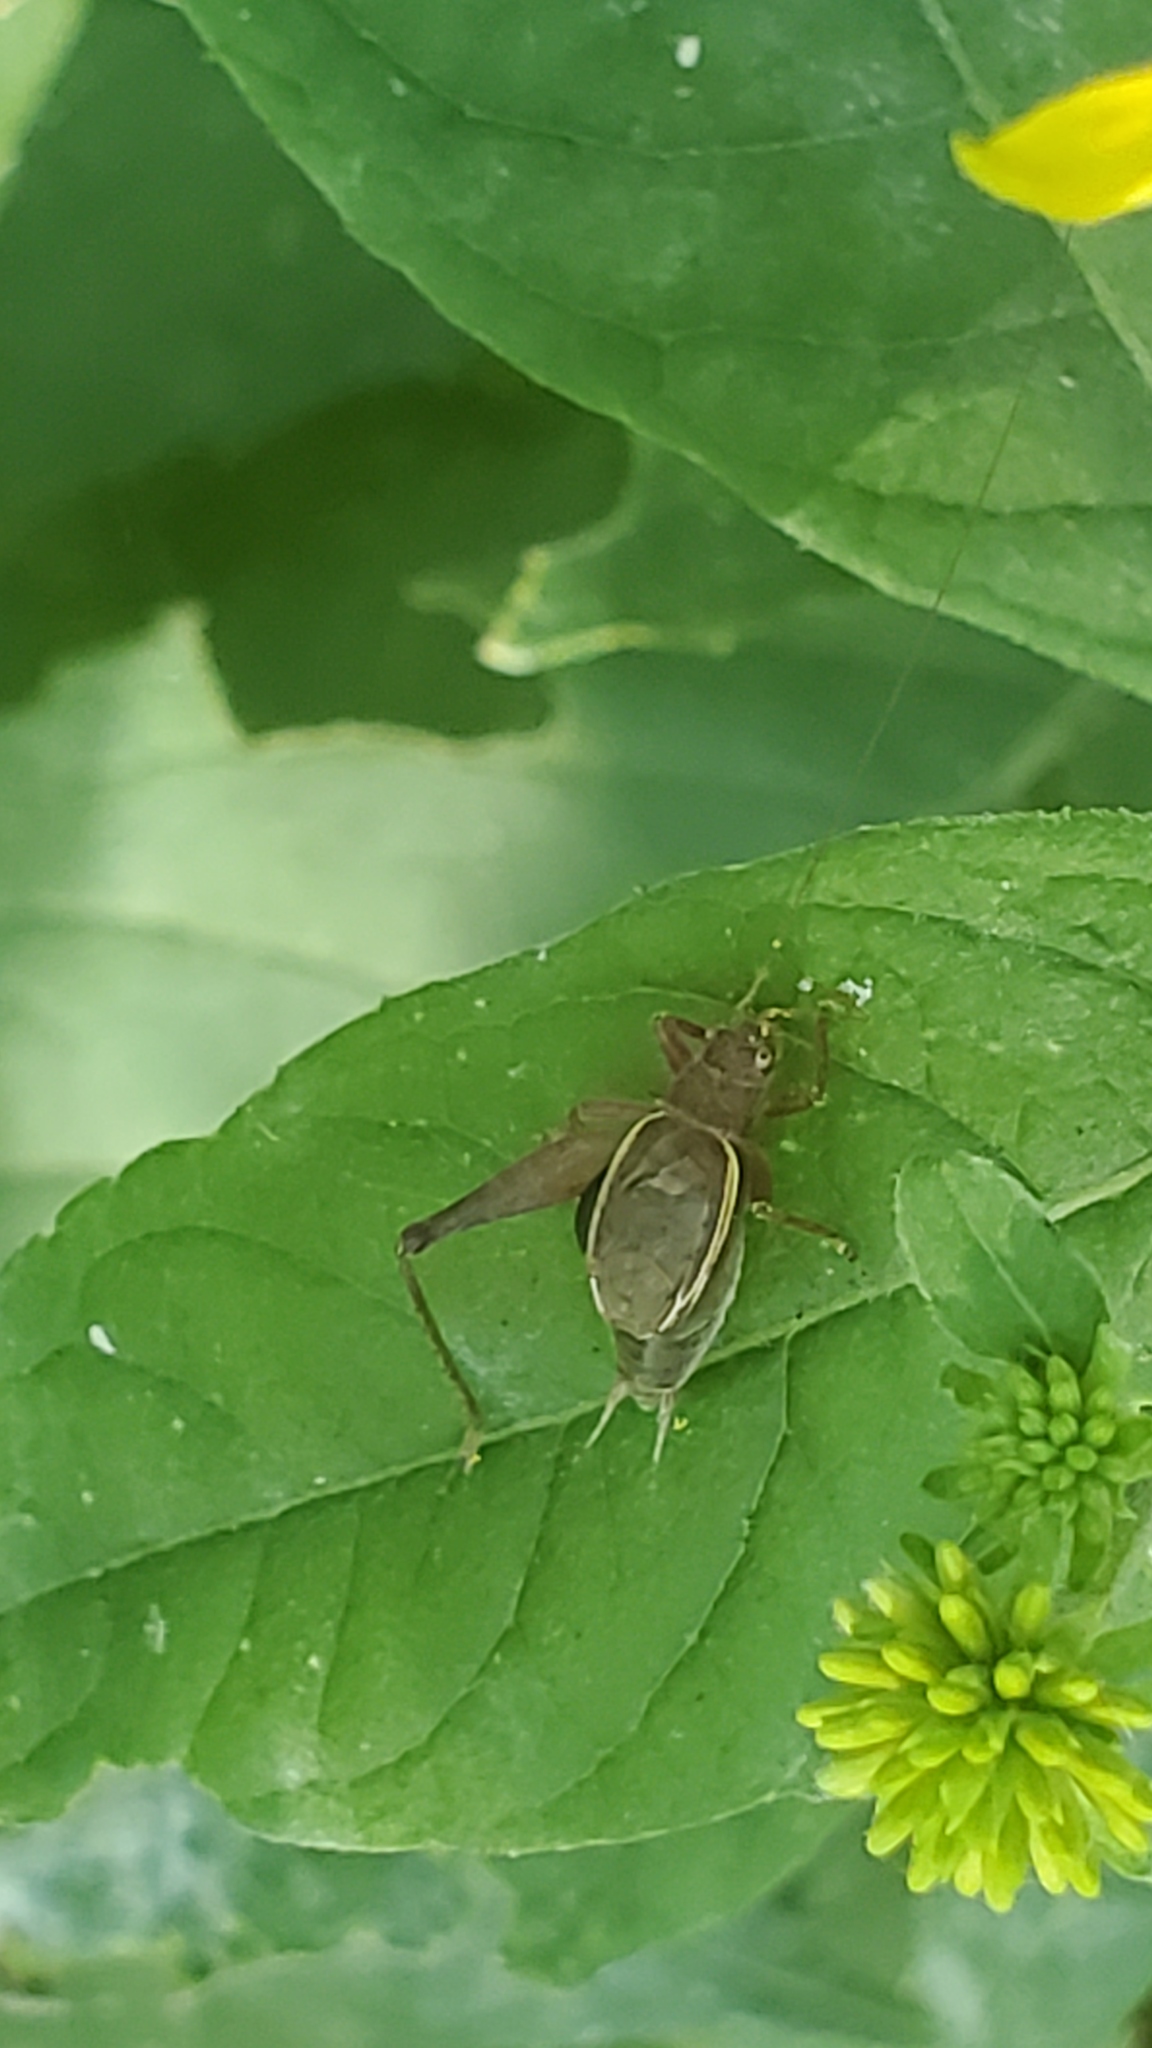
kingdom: Animalia
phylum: Arthropoda
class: Insecta
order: Orthoptera
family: Gryllidae
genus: Hapithus
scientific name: Hapithus agitator
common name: Restless bush cricket
